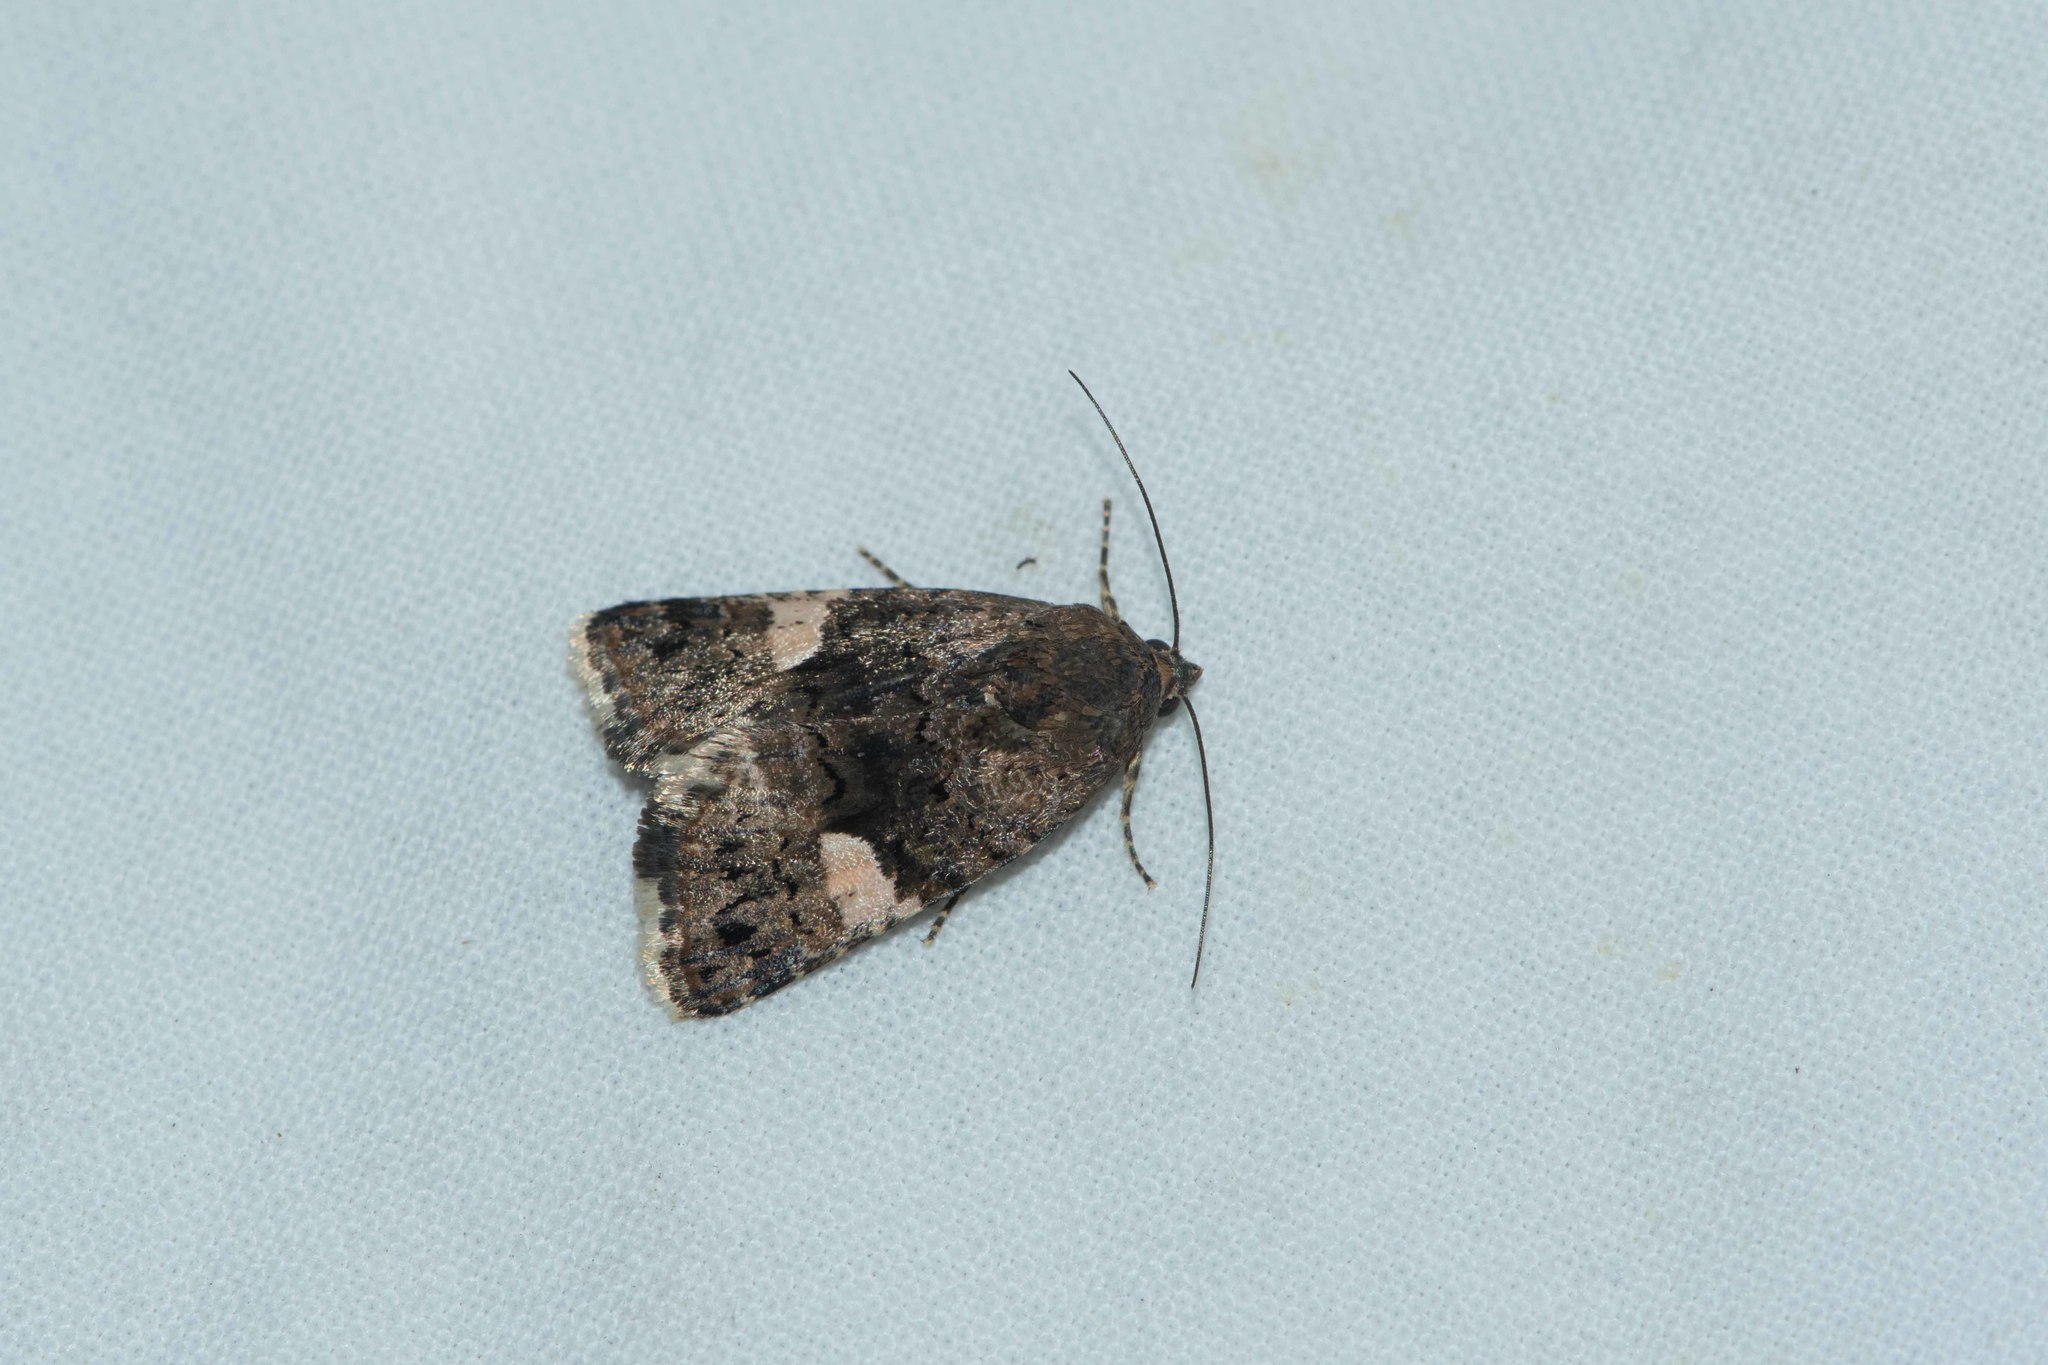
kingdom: Animalia
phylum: Arthropoda
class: Insecta
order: Lepidoptera
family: Erebidae
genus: Tyta
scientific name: Tyta luctuosa
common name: Four-spotted
